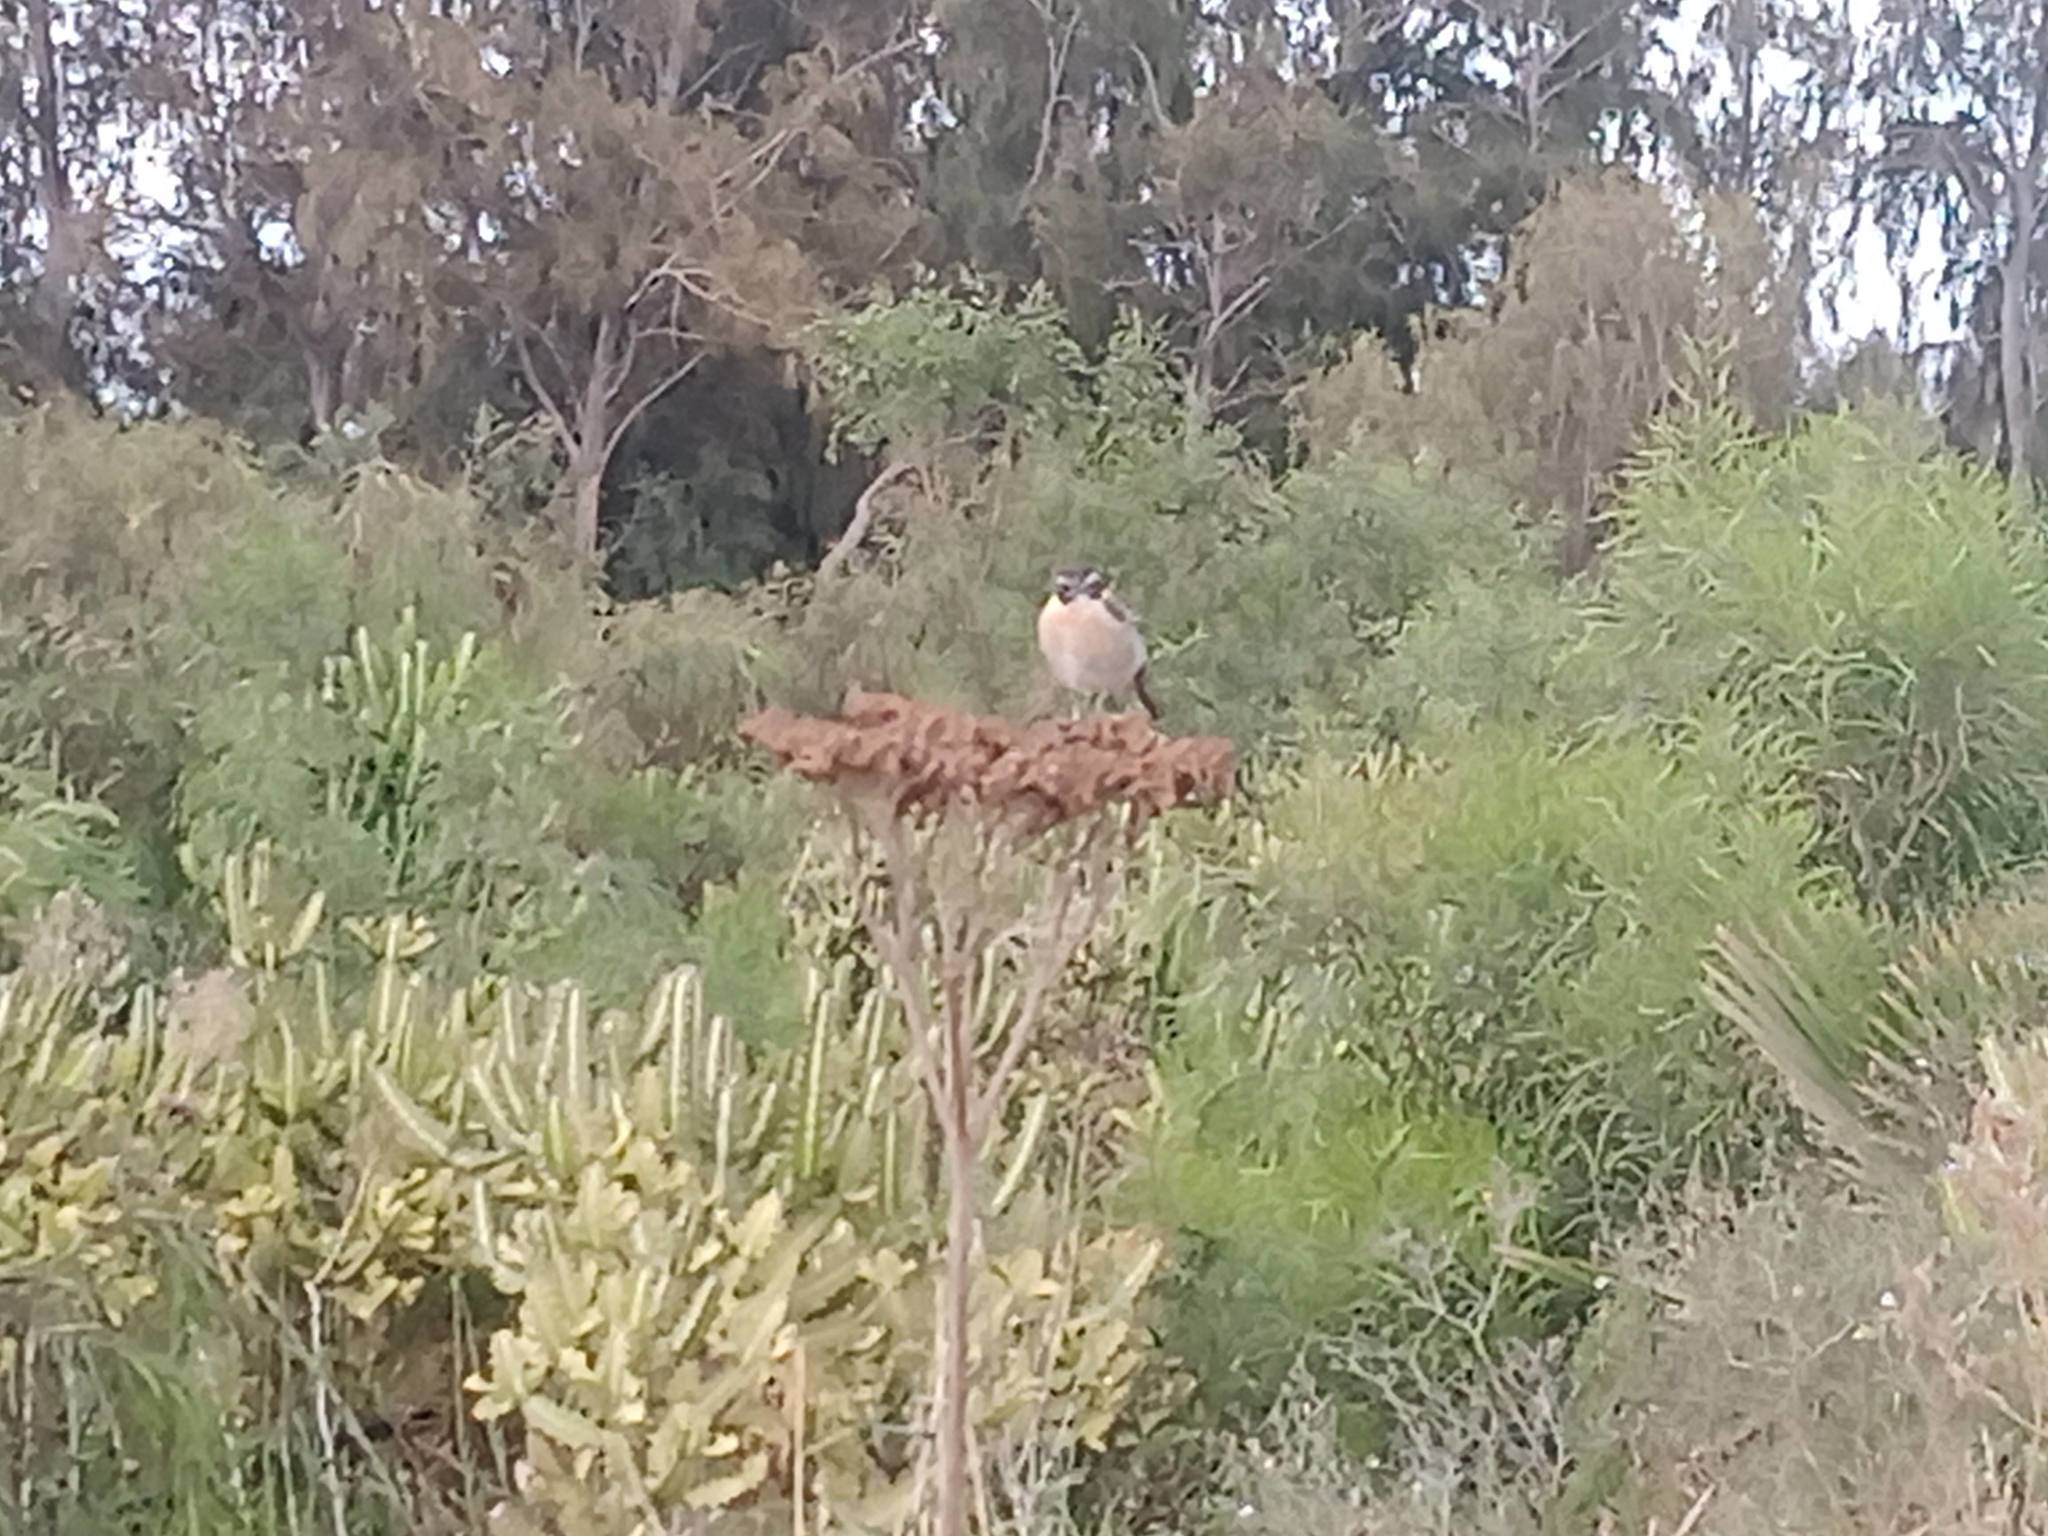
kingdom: Animalia
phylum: Chordata
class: Aves
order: Passeriformes
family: Muscicapidae
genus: Saxicola
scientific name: Saxicola dacotiae
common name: Canary islands stonechat
